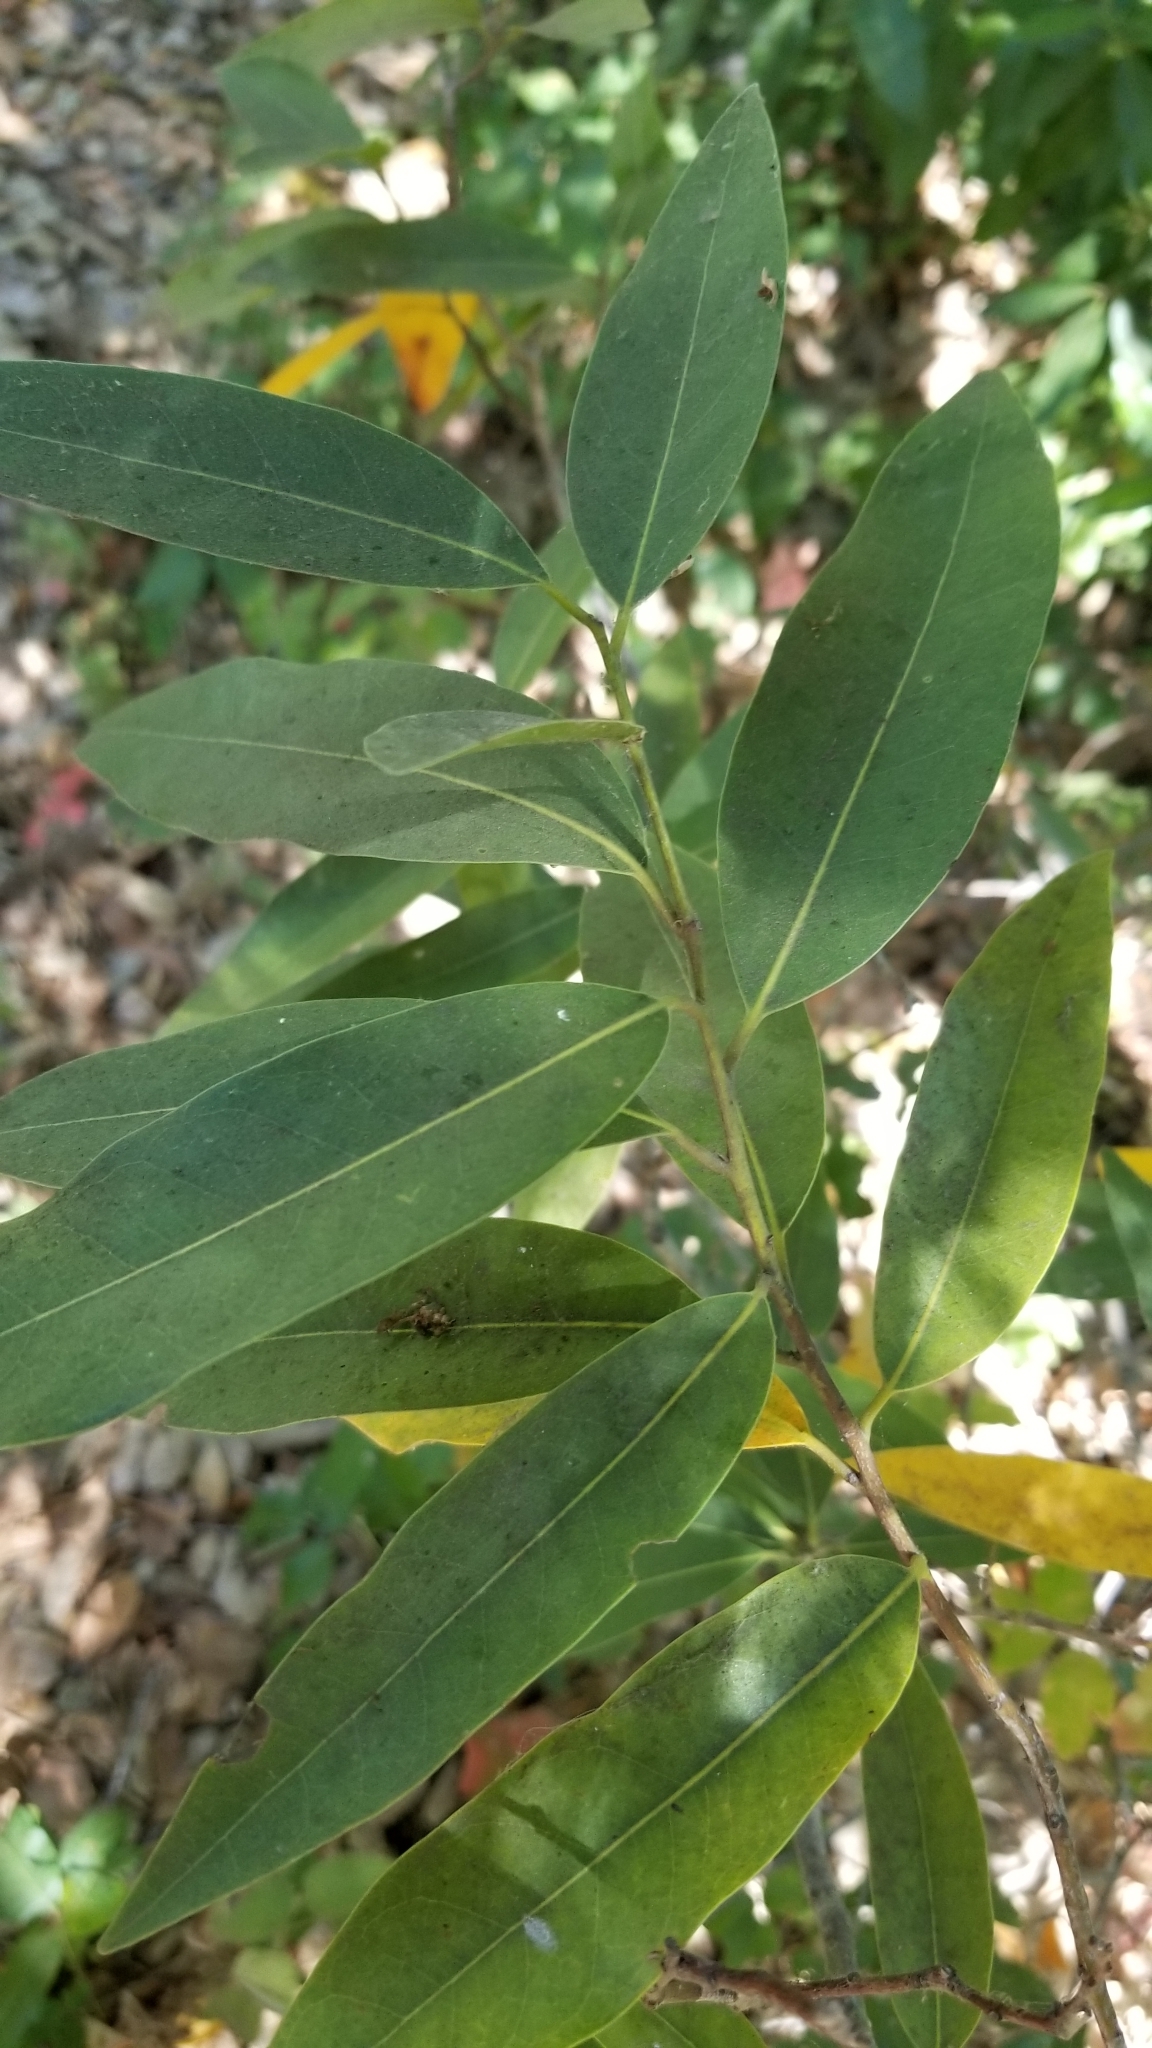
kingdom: Plantae
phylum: Tracheophyta
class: Magnoliopsida
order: Laurales
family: Lauraceae
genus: Umbellularia
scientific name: Umbellularia californica
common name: California bay
